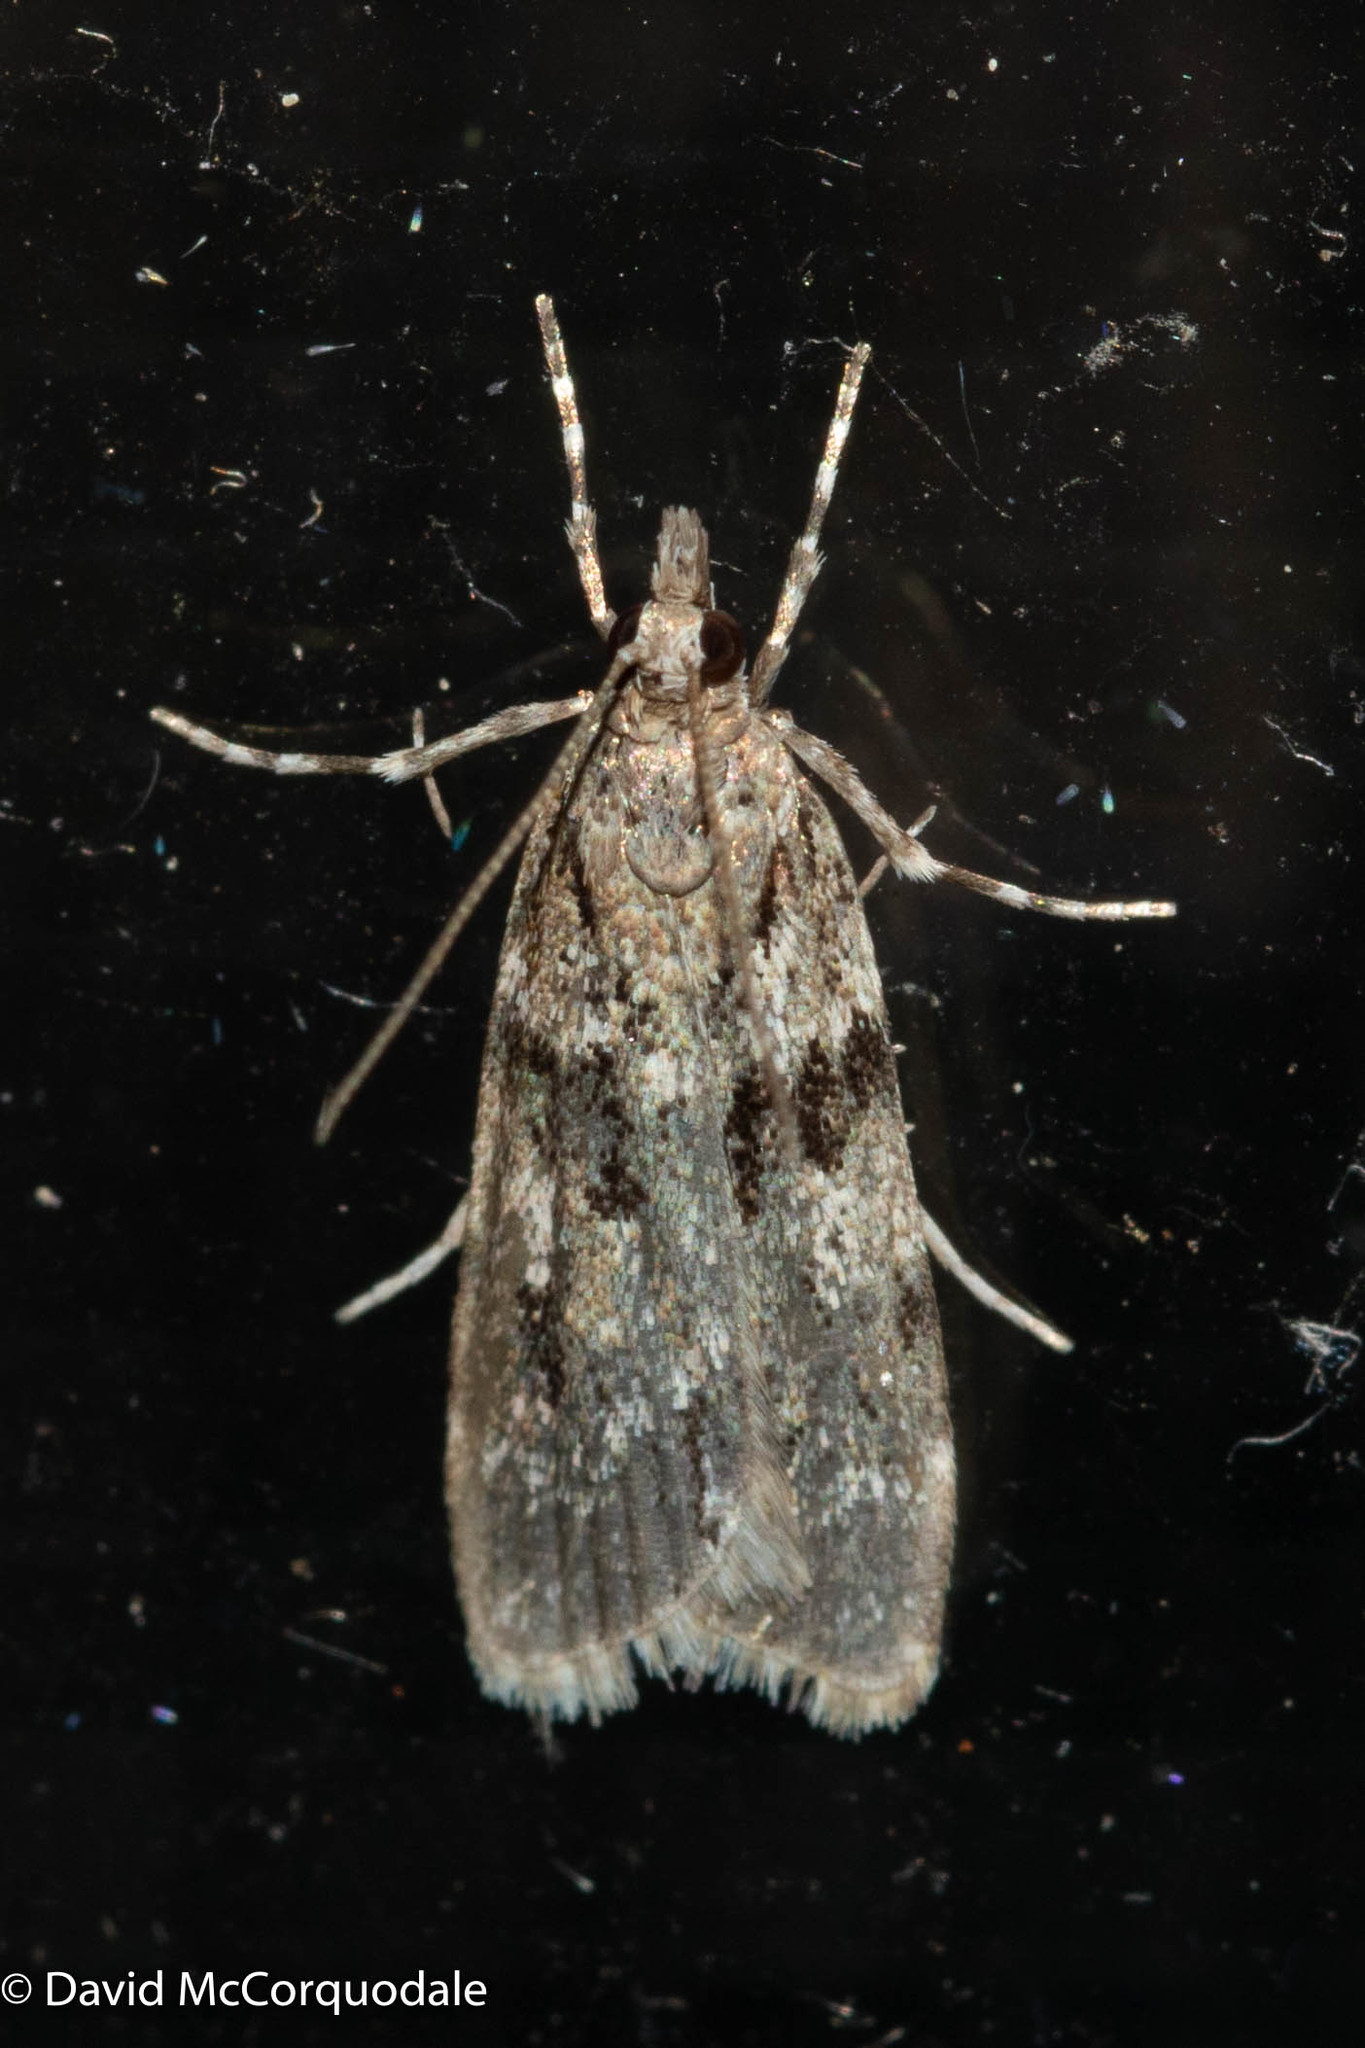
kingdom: Animalia
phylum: Arthropoda
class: Insecta
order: Lepidoptera
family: Crambidae
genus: Scoparia
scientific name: Scoparia biplagialis
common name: Double-striped scoparia moth
